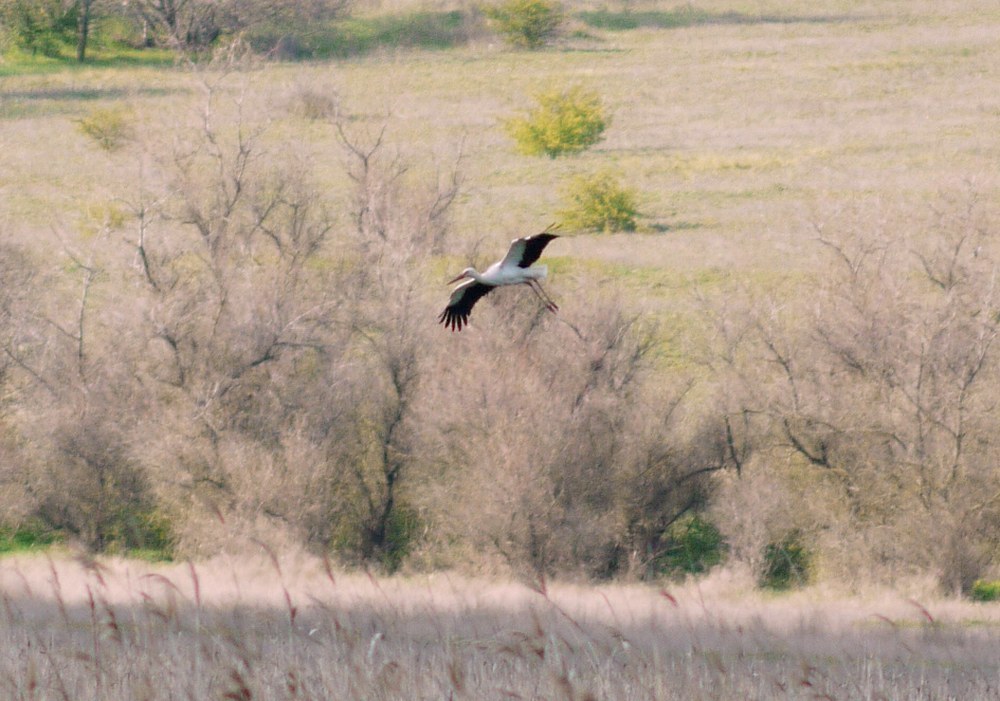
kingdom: Animalia
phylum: Chordata
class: Aves
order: Ciconiiformes
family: Ciconiidae
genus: Ciconia
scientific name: Ciconia ciconia
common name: White stork
